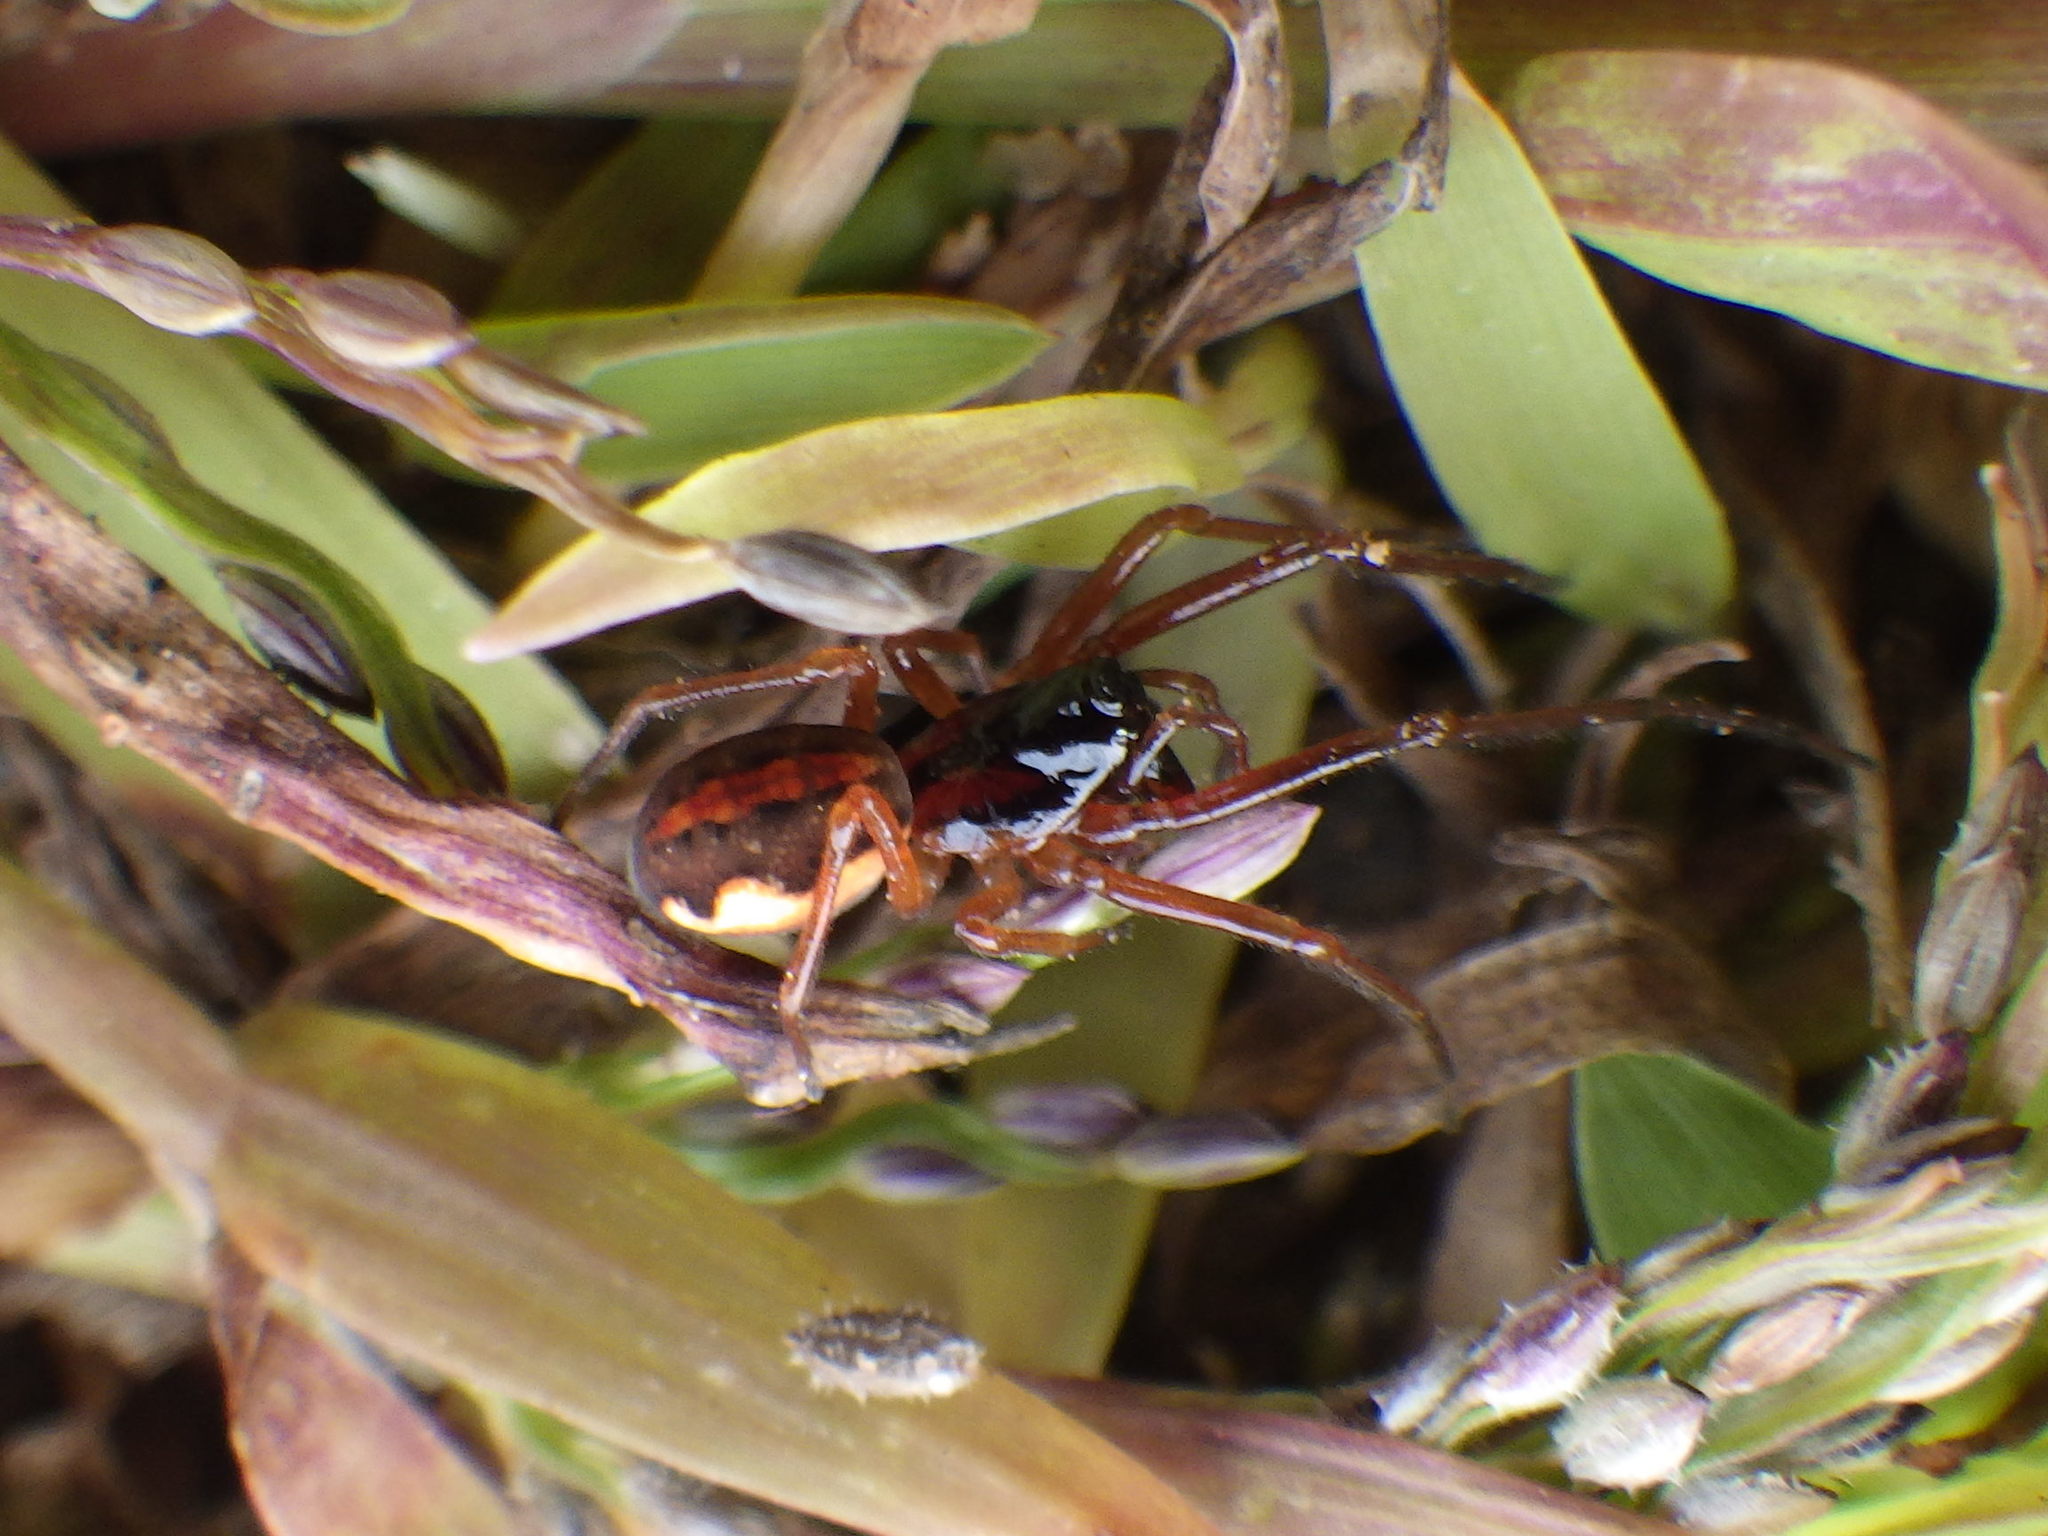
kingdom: Animalia
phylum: Arthropoda
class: Arachnida
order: Araneae
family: Tetragnathidae
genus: Pachygnatha
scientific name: Pachygnatha autumnalis
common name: Big-eyed thick-jawed spider
